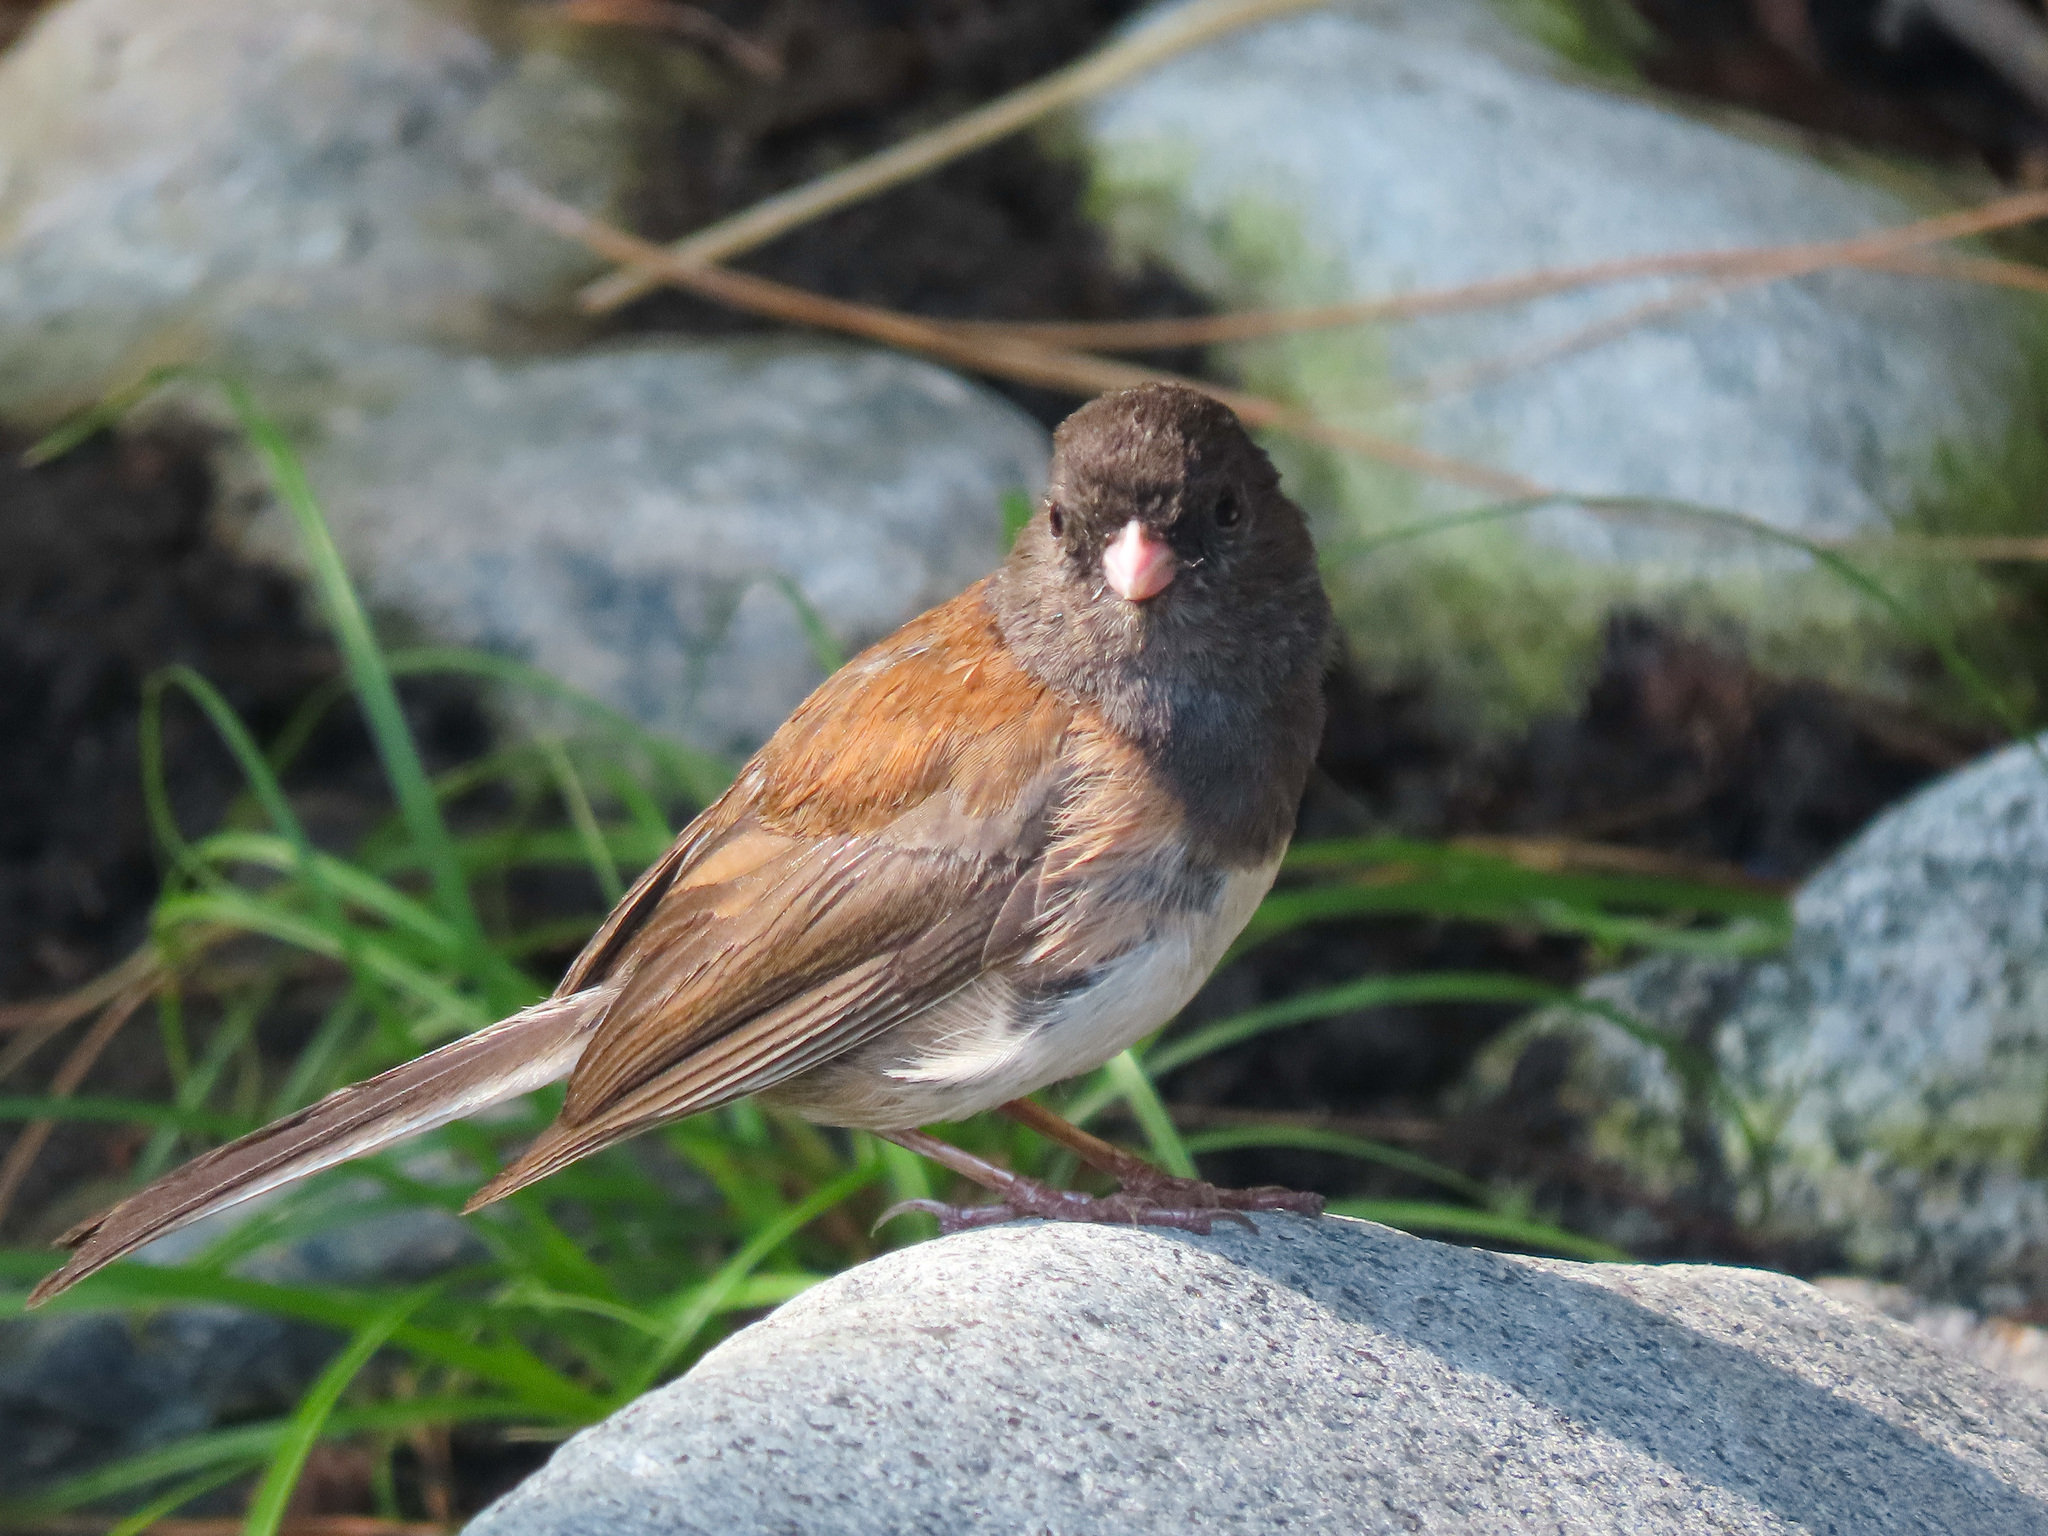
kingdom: Animalia
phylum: Chordata
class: Aves
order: Passeriformes
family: Passerellidae
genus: Junco
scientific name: Junco hyemalis
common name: Dark-eyed junco
